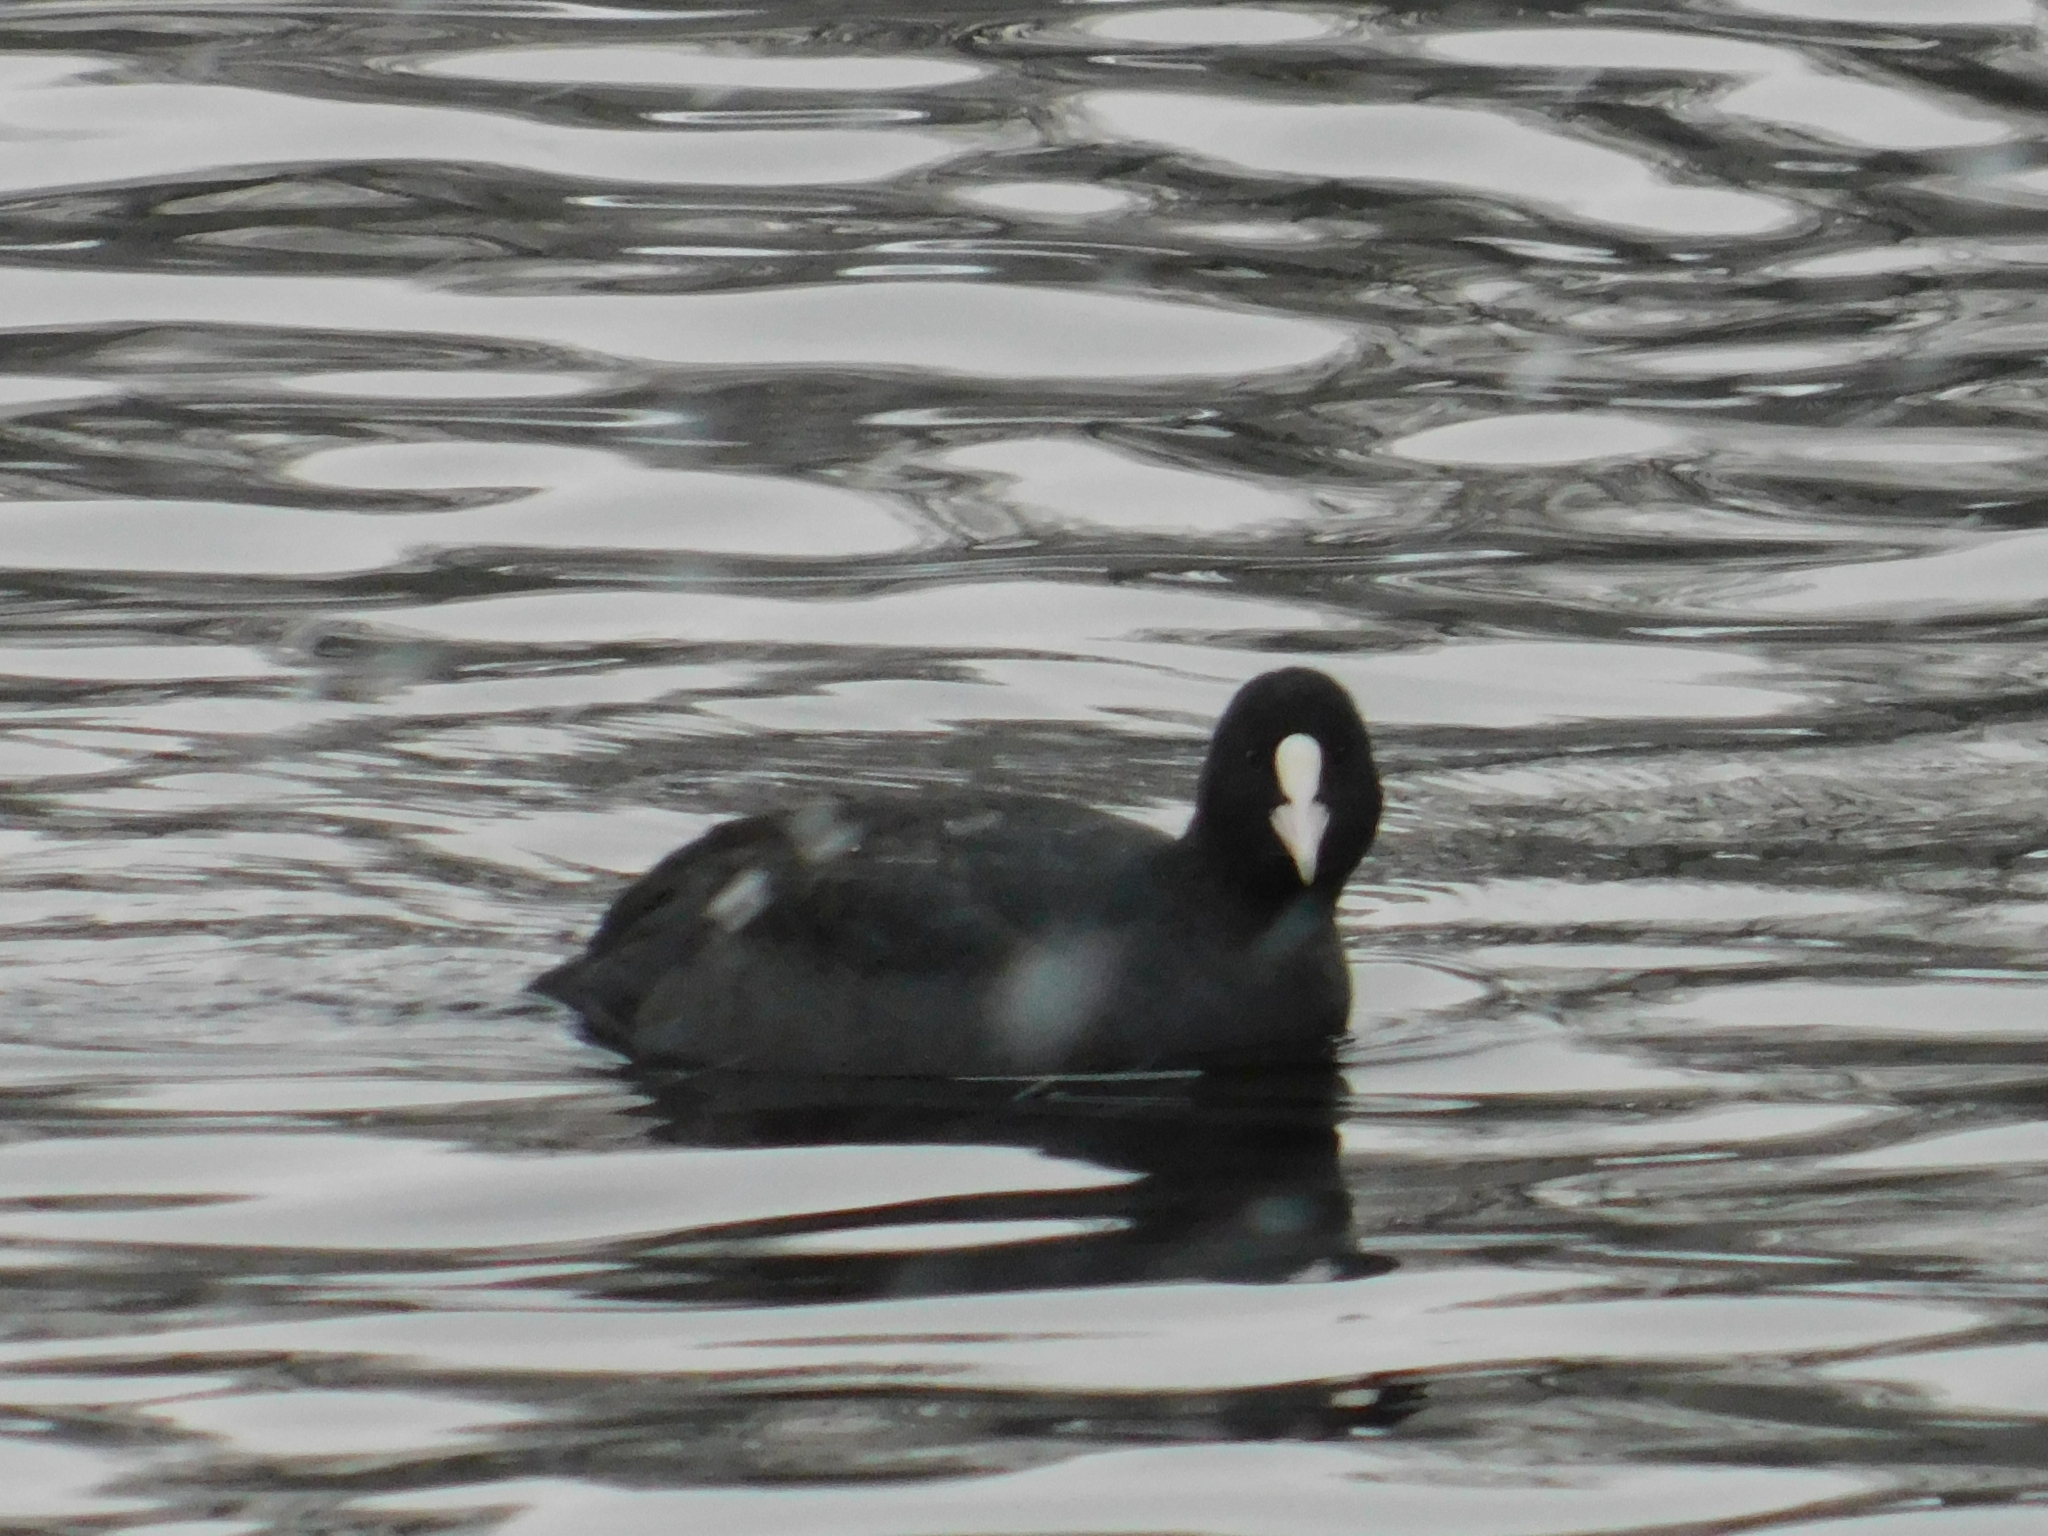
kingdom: Animalia
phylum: Chordata
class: Aves
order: Gruiformes
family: Rallidae
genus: Fulica
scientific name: Fulica atra
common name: Eurasian coot
